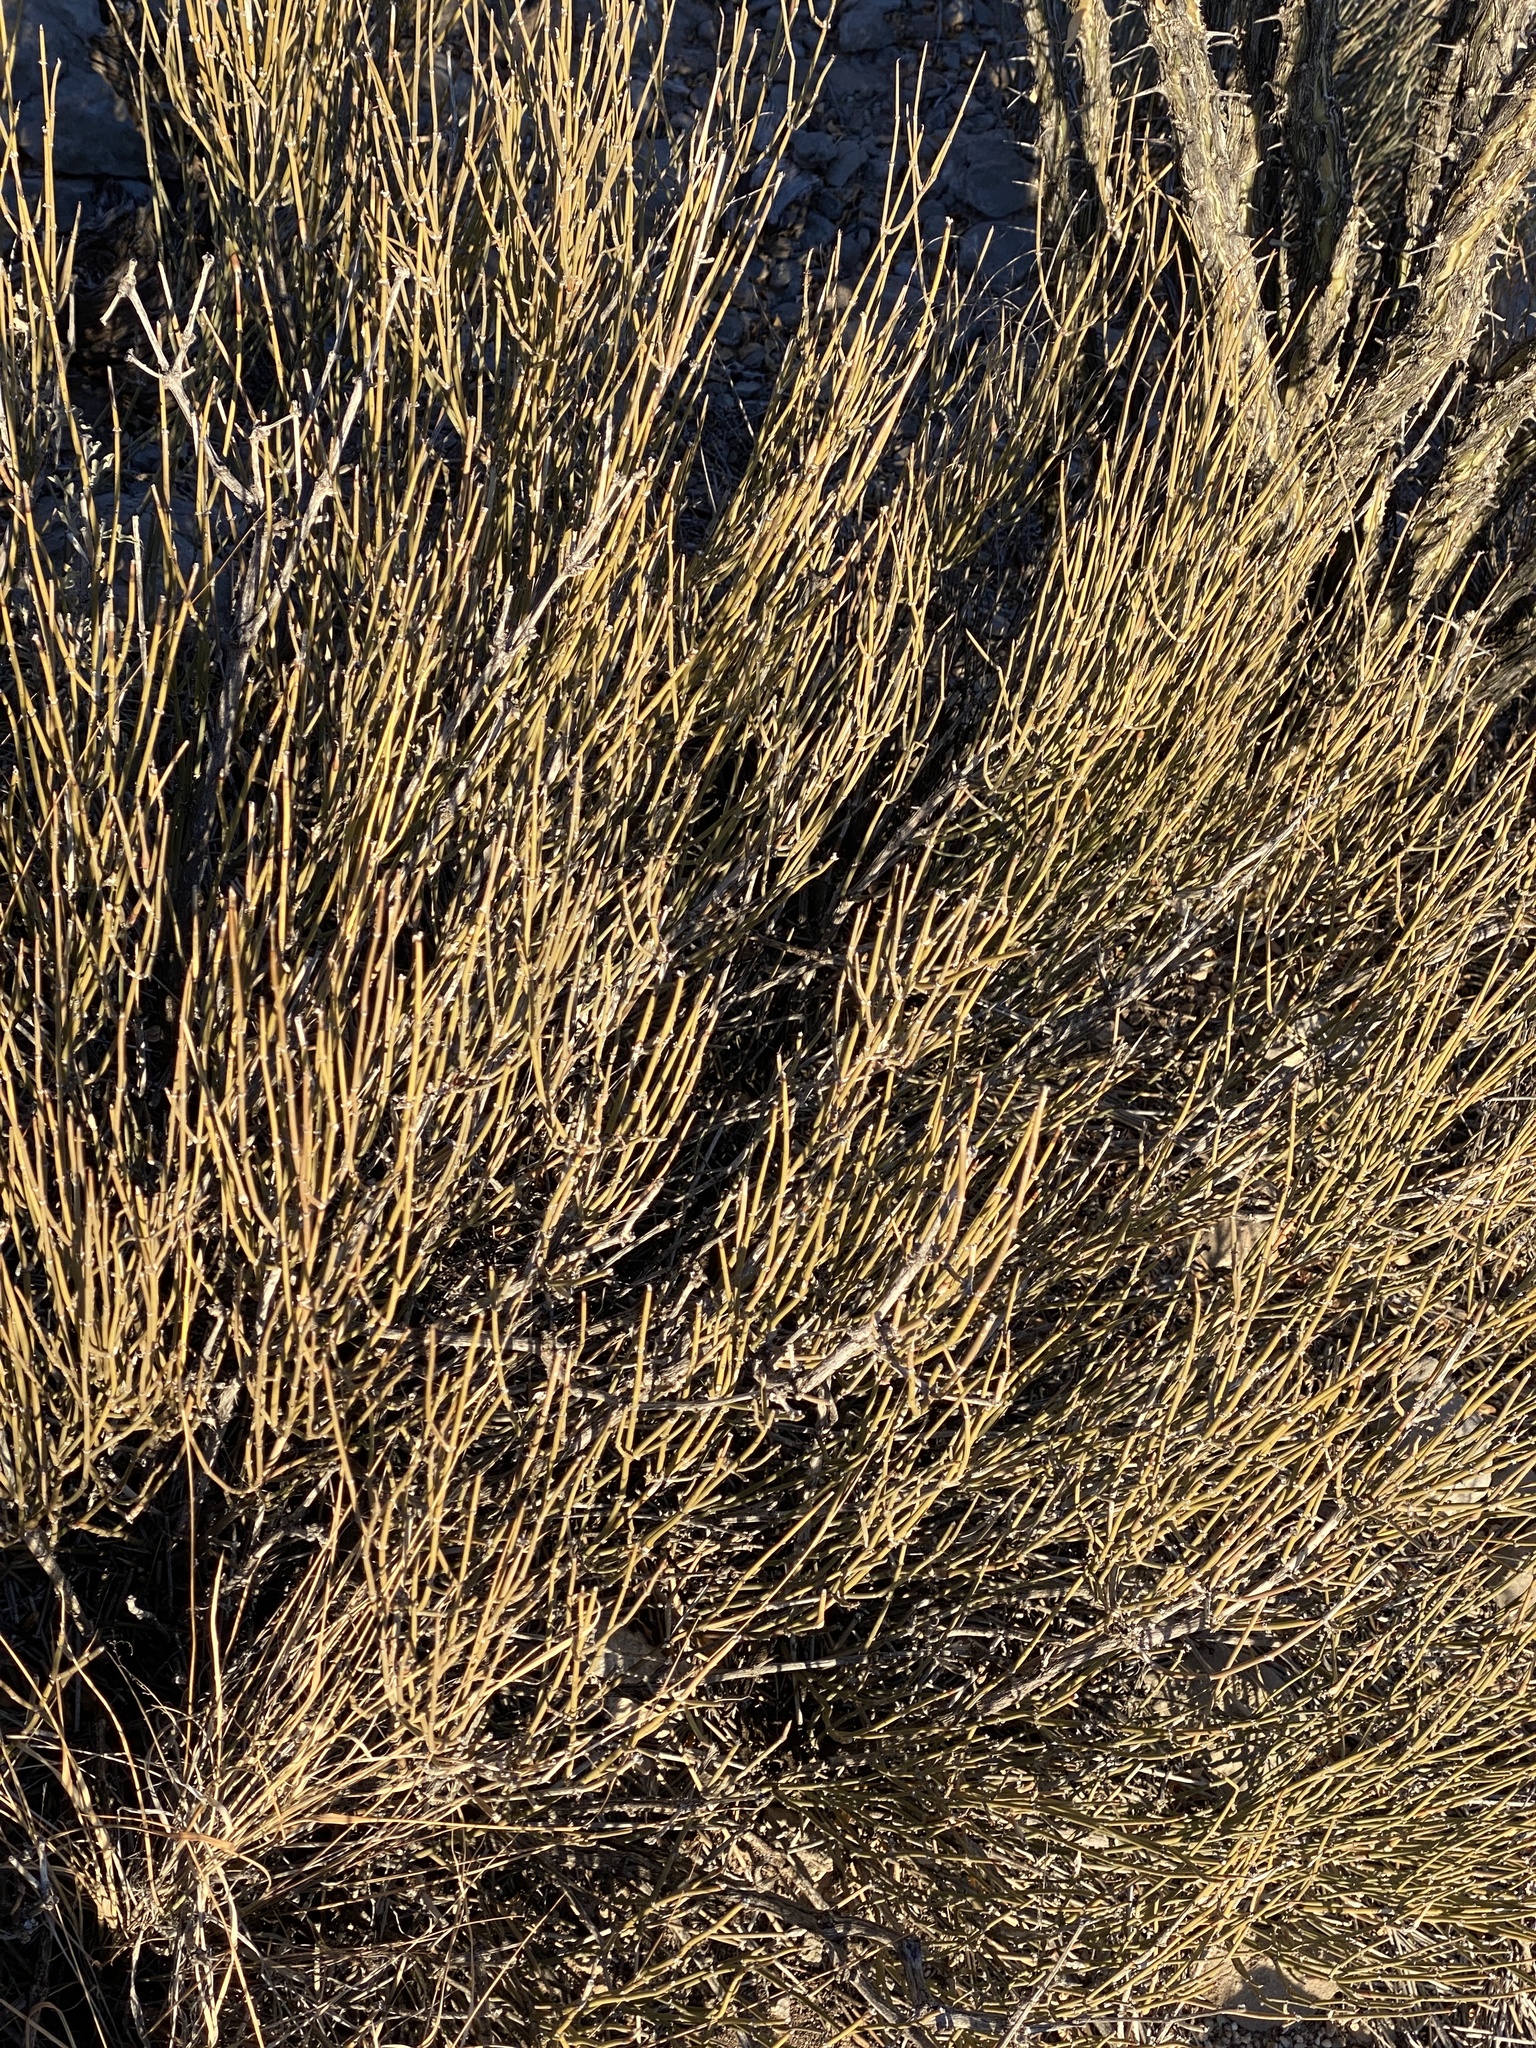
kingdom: Plantae
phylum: Tracheophyta
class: Gnetopsida
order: Ephedrales
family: Ephedraceae
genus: Ephedra
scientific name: Ephedra trifurca
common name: Mexican-tea
